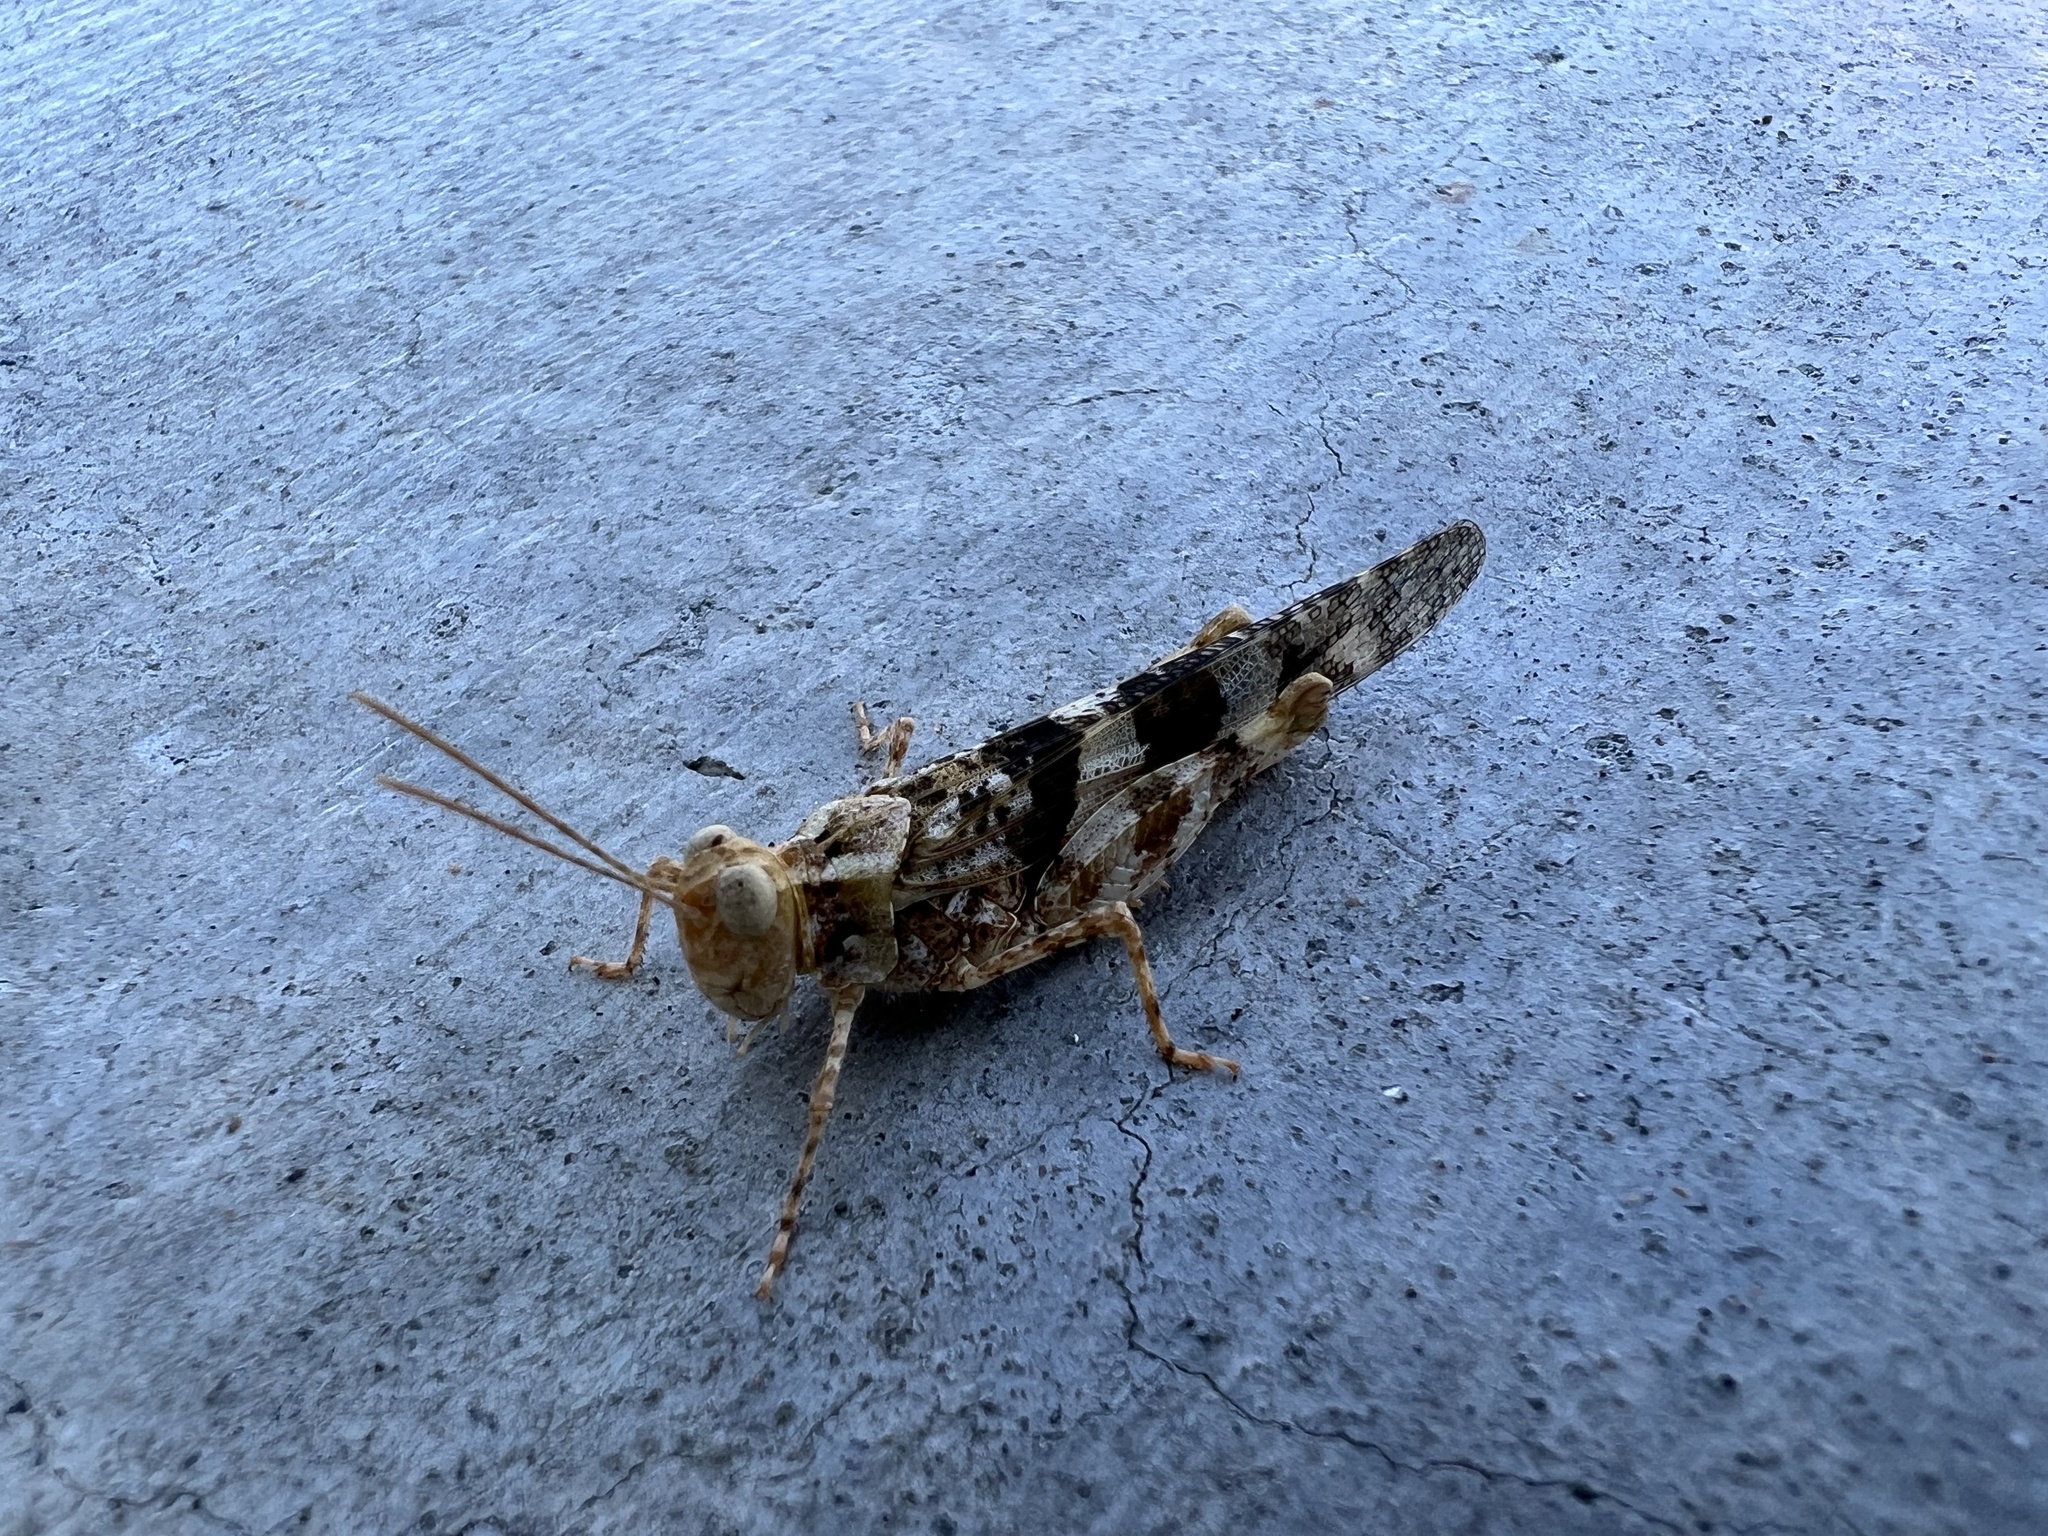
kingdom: Animalia
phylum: Arthropoda
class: Insecta
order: Orthoptera
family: Acrididae
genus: Trimerotropis
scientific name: Trimerotropis pallidipennis
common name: Pallid-winged grasshopper
